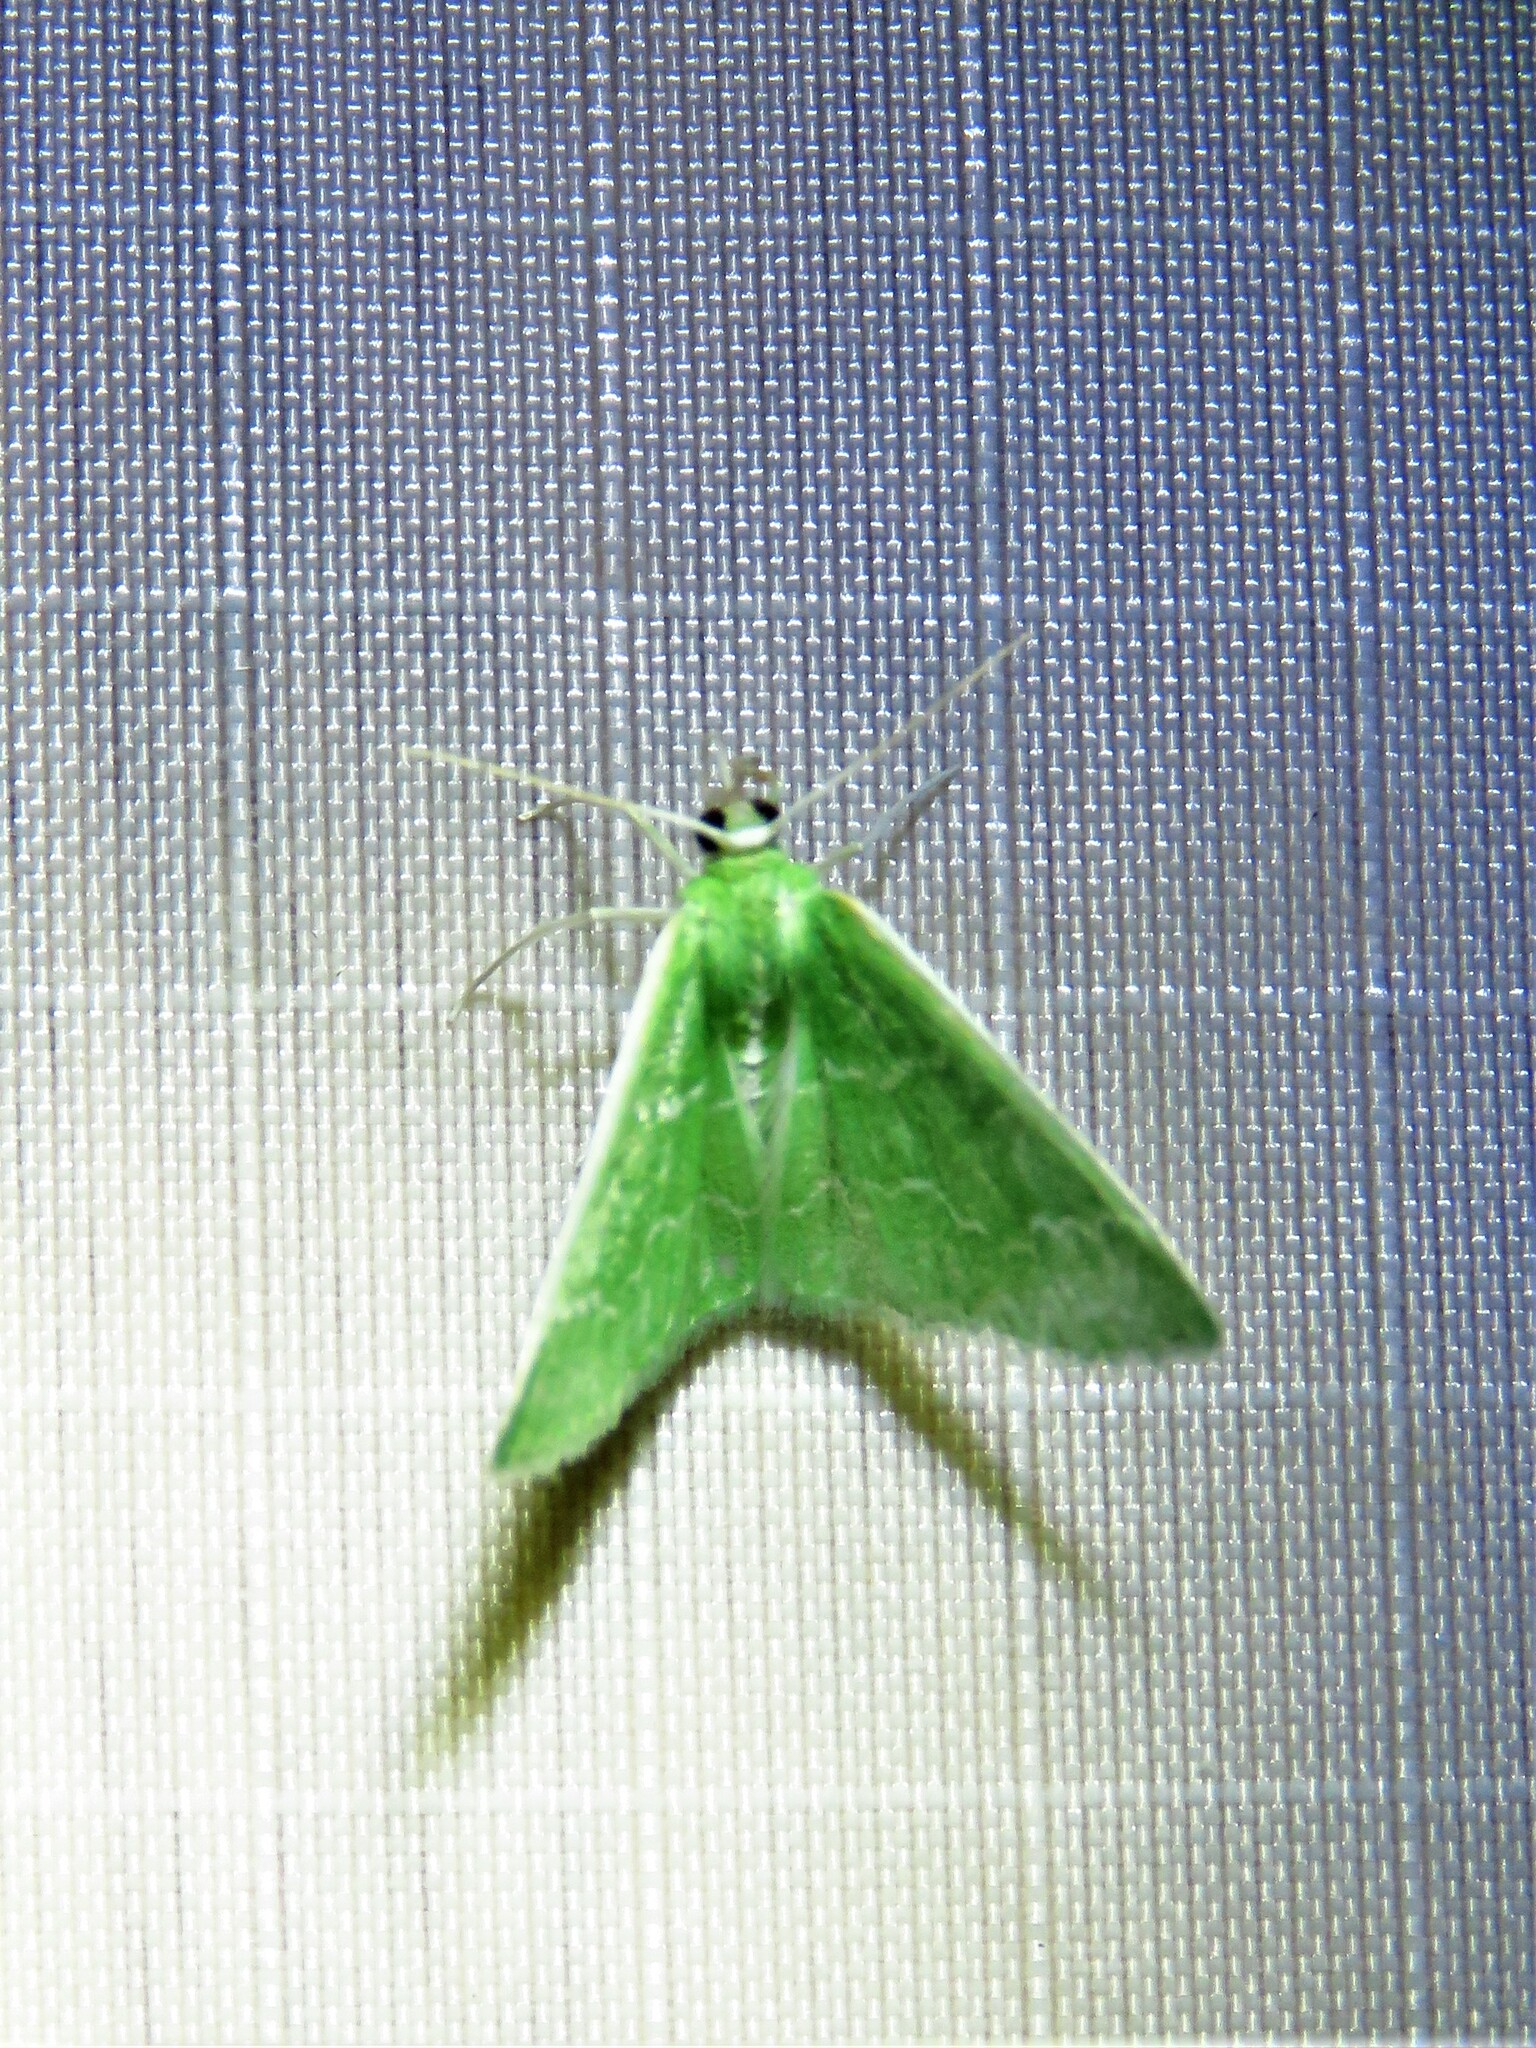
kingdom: Animalia
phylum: Arthropoda
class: Insecta
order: Lepidoptera
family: Geometridae
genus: Synchlora
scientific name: Synchlora frondaria
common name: Southern emerald
